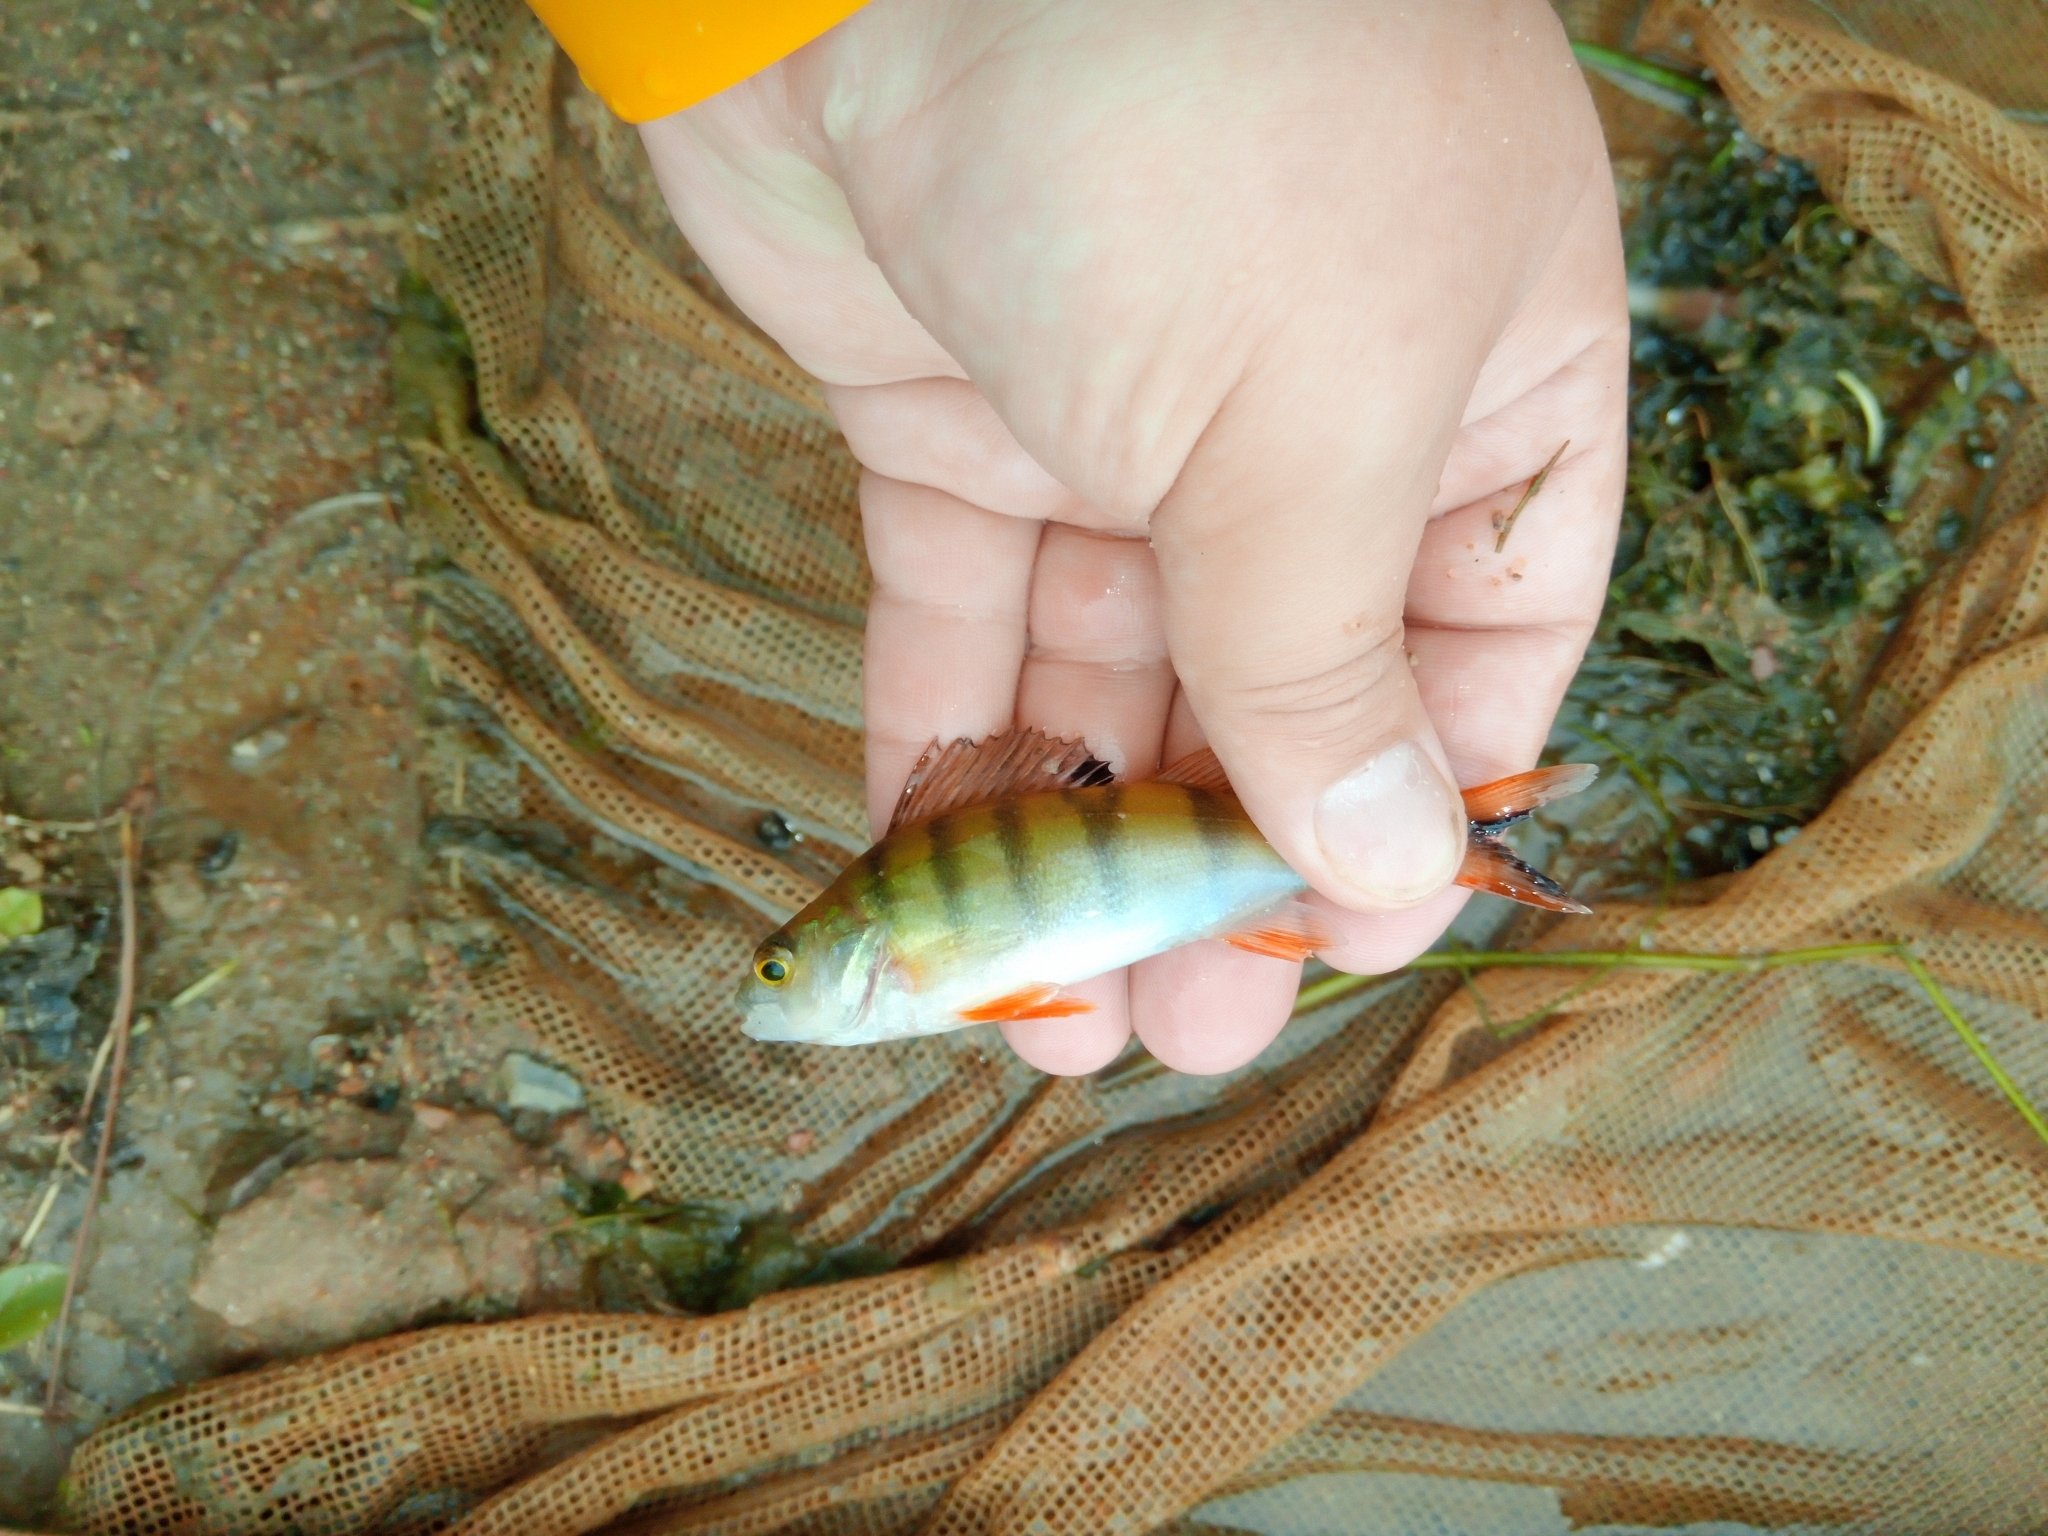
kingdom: Animalia
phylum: Chordata
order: Perciformes
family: Percidae
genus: Perca
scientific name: Perca fluviatilis
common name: Perch
